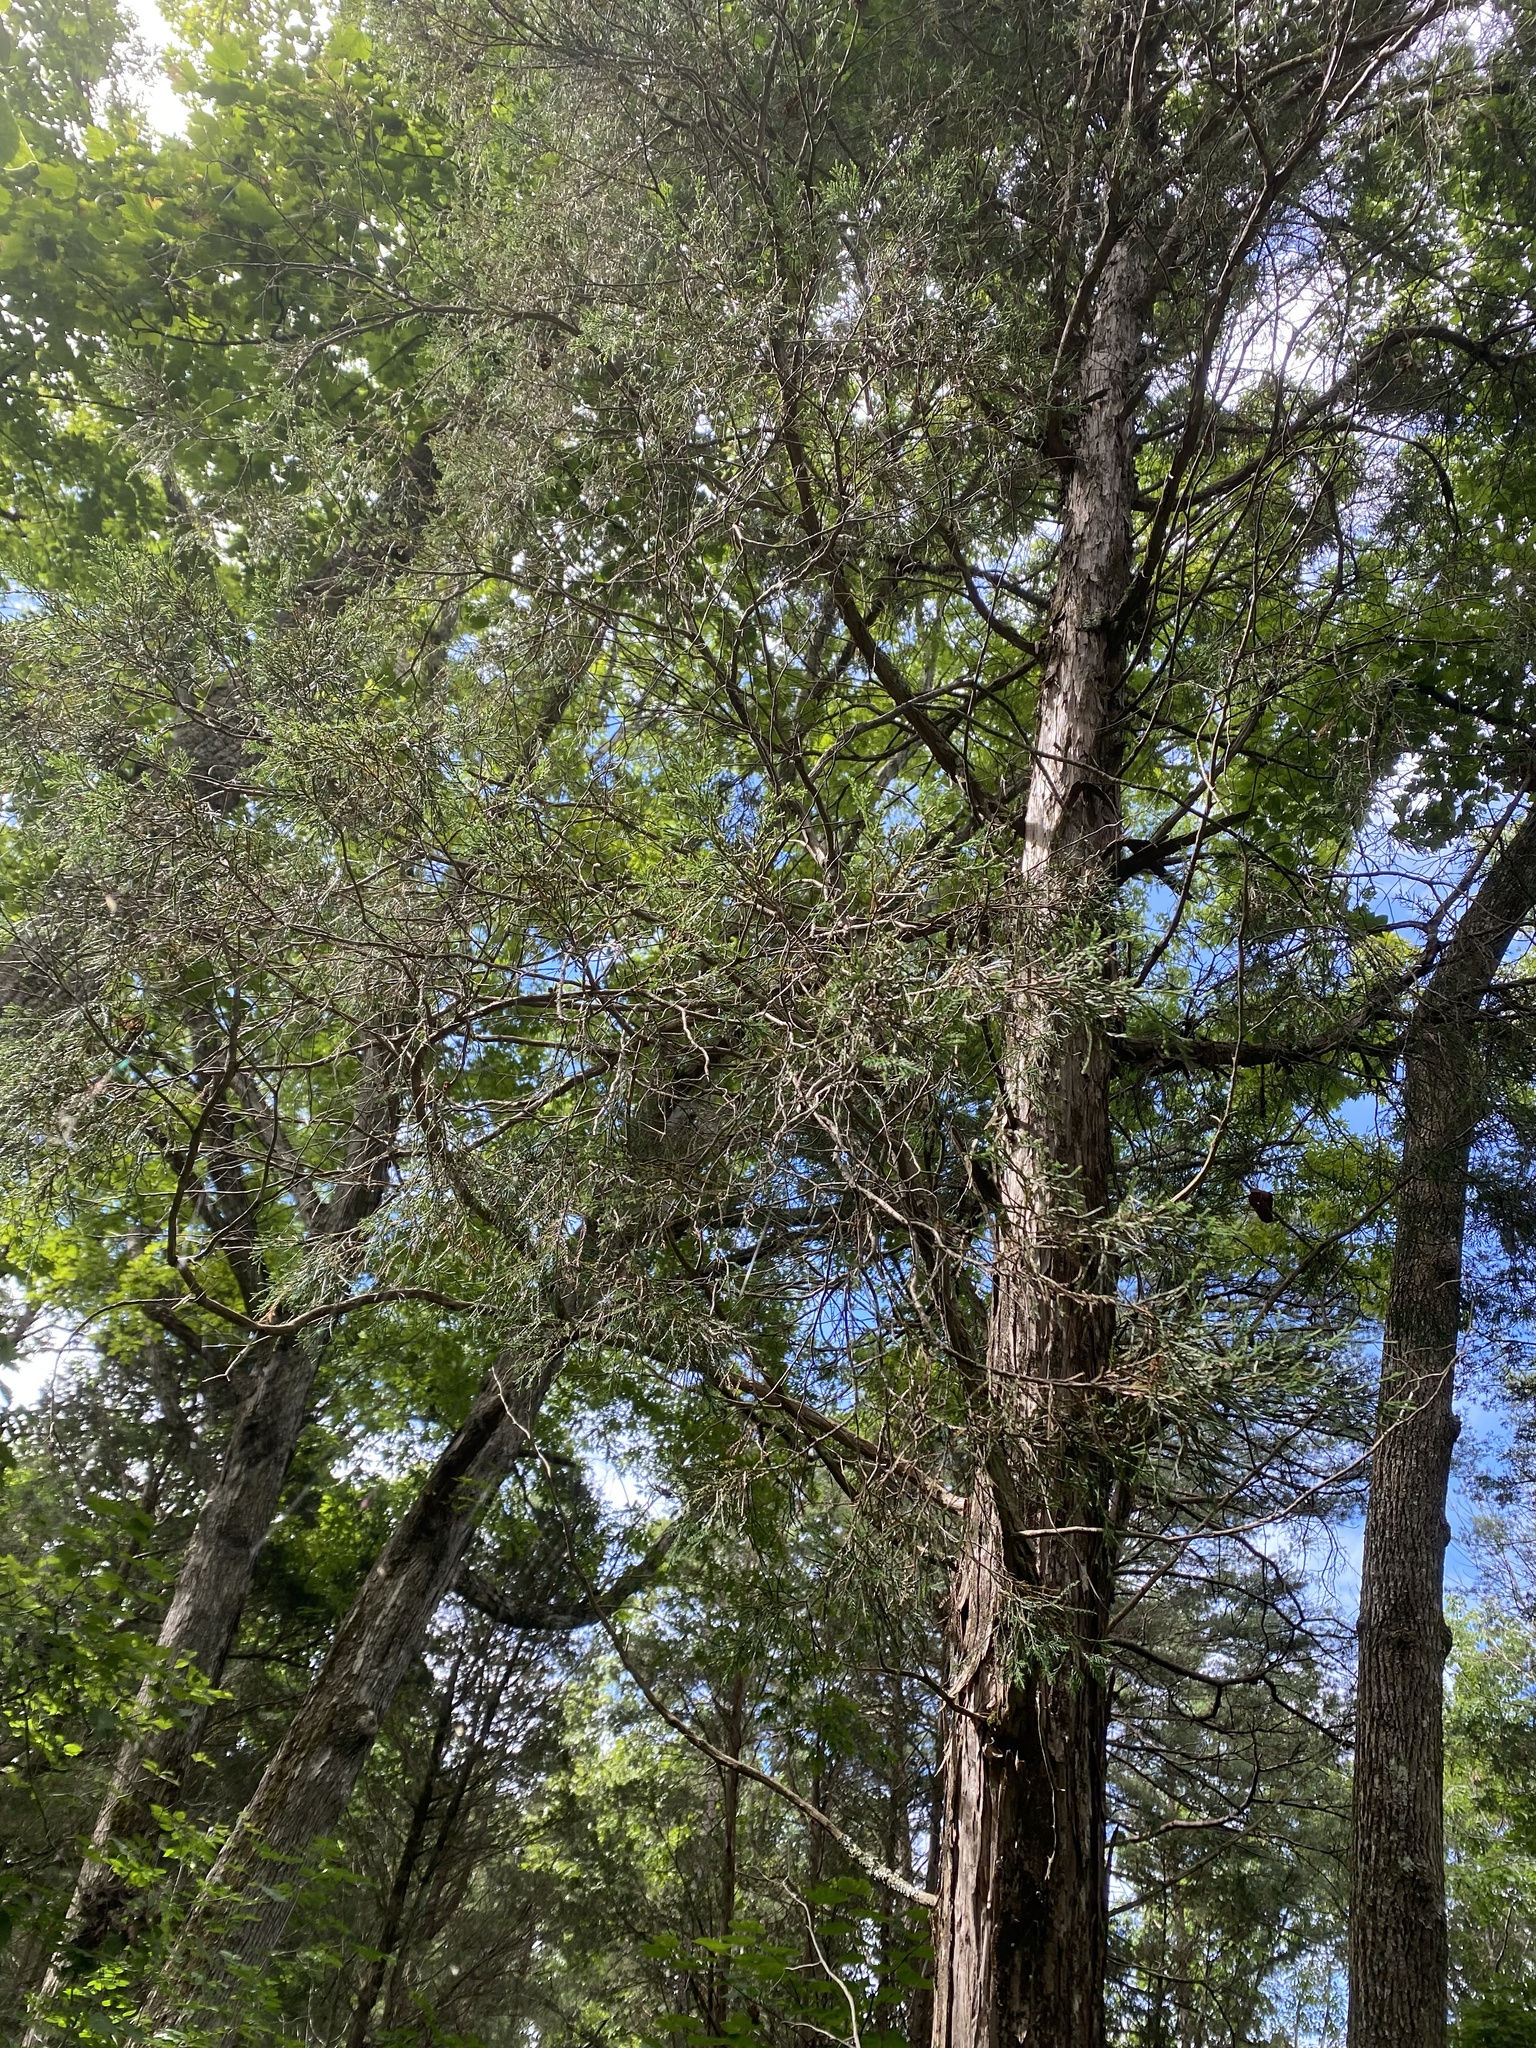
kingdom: Plantae
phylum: Tracheophyta
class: Pinopsida
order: Pinales
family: Cupressaceae
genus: Juniperus
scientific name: Juniperus virginiana
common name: Red juniper
